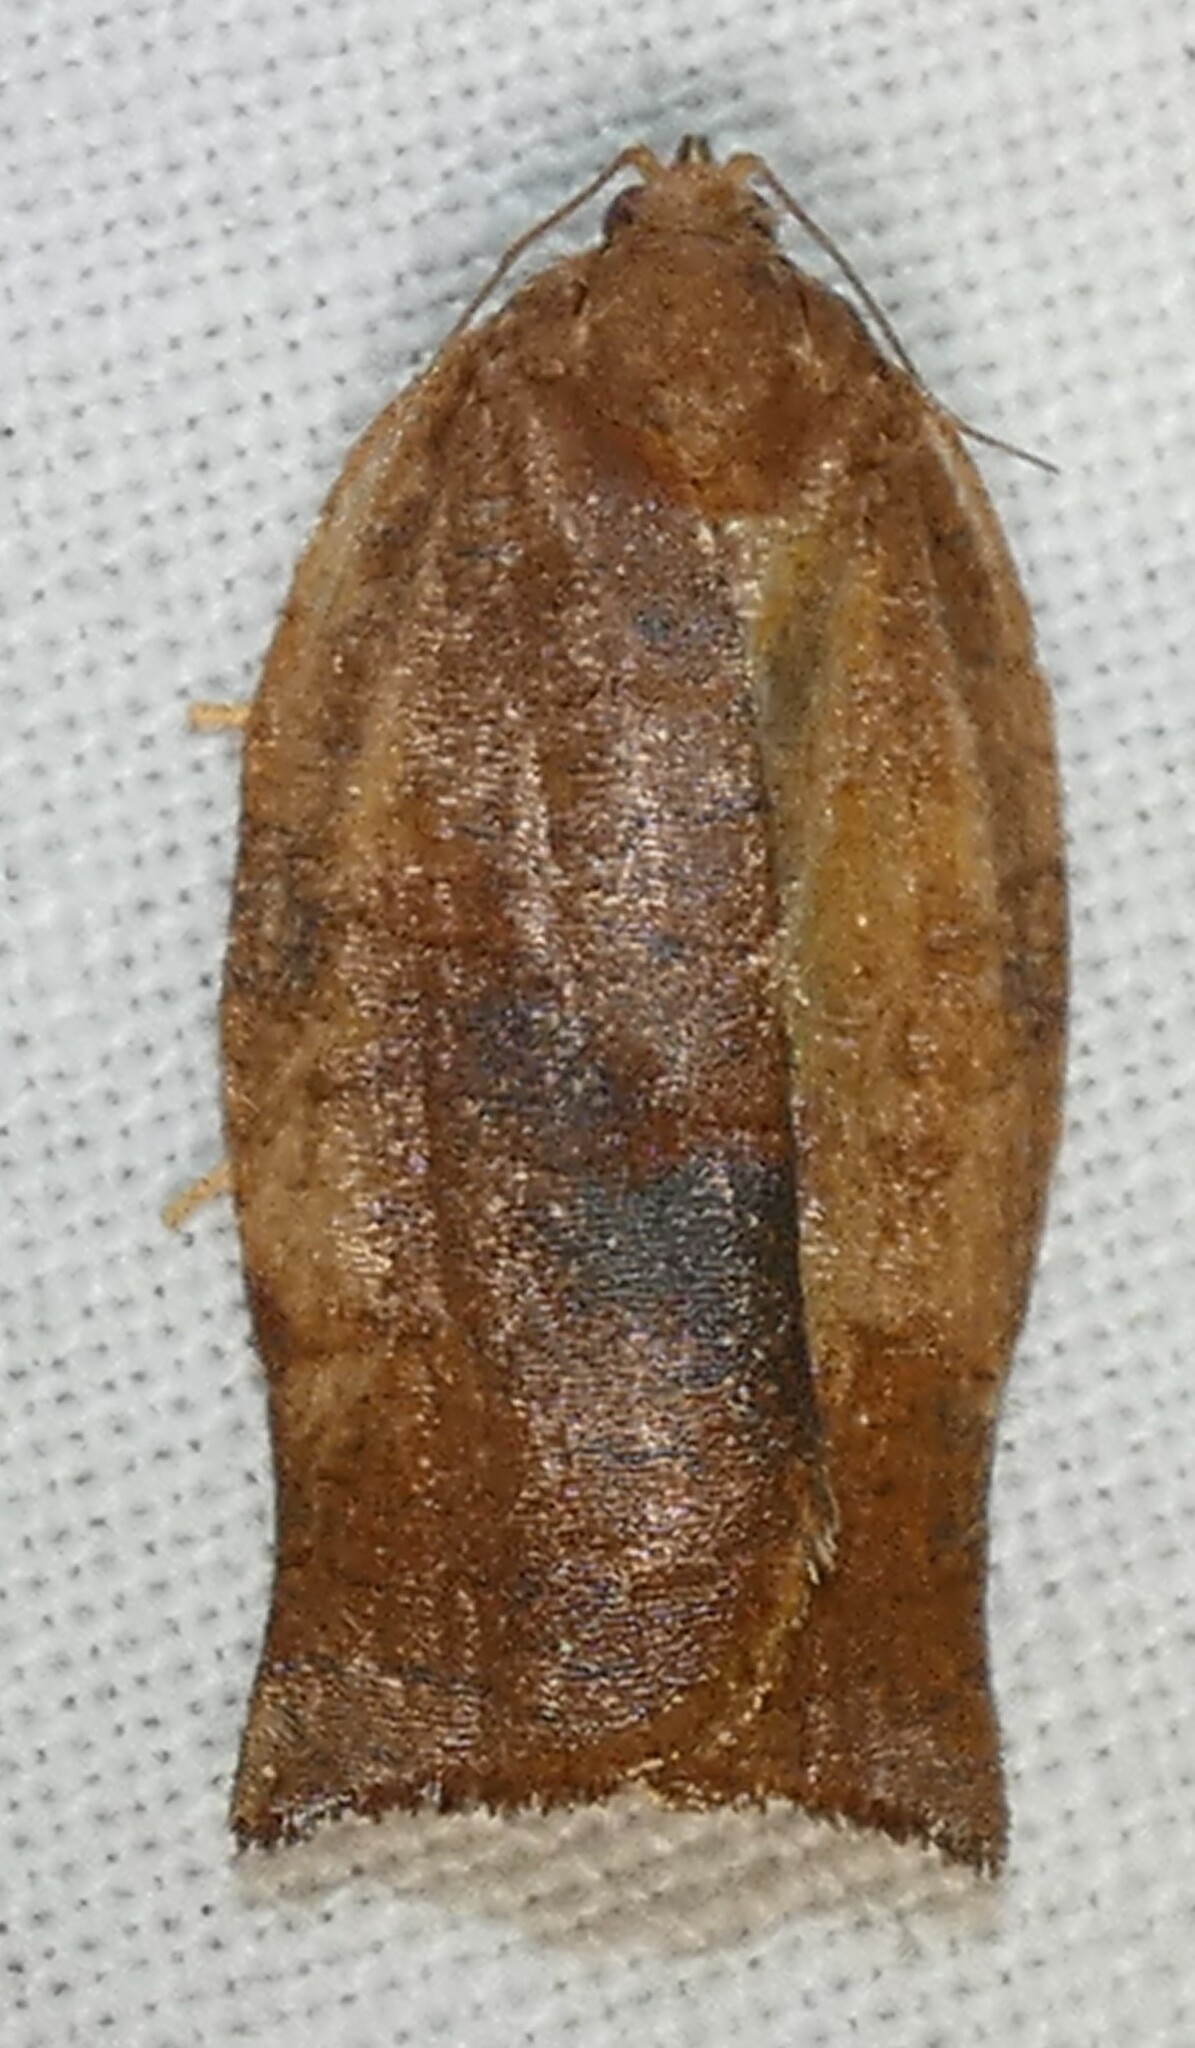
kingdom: Animalia
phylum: Arthropoda
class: Insecta
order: Lepidoptera
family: Tortricidae
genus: Choristoneura
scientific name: Choristoneura rosaceana
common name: Oblique-banded leafroller moth
